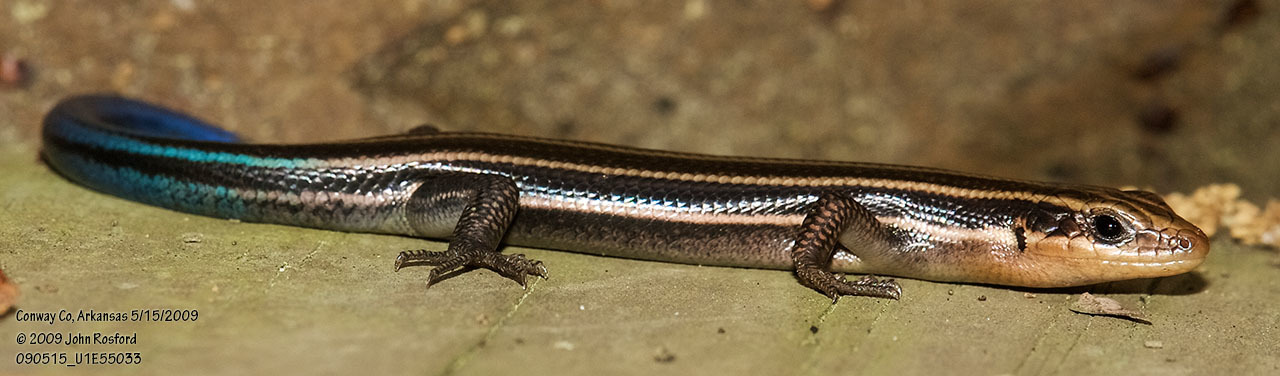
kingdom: Animalia
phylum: Chordata
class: Squamata
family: Scincidae
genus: Plestiodon
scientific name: Plestiodon fasciatus
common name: Five-lined skink
